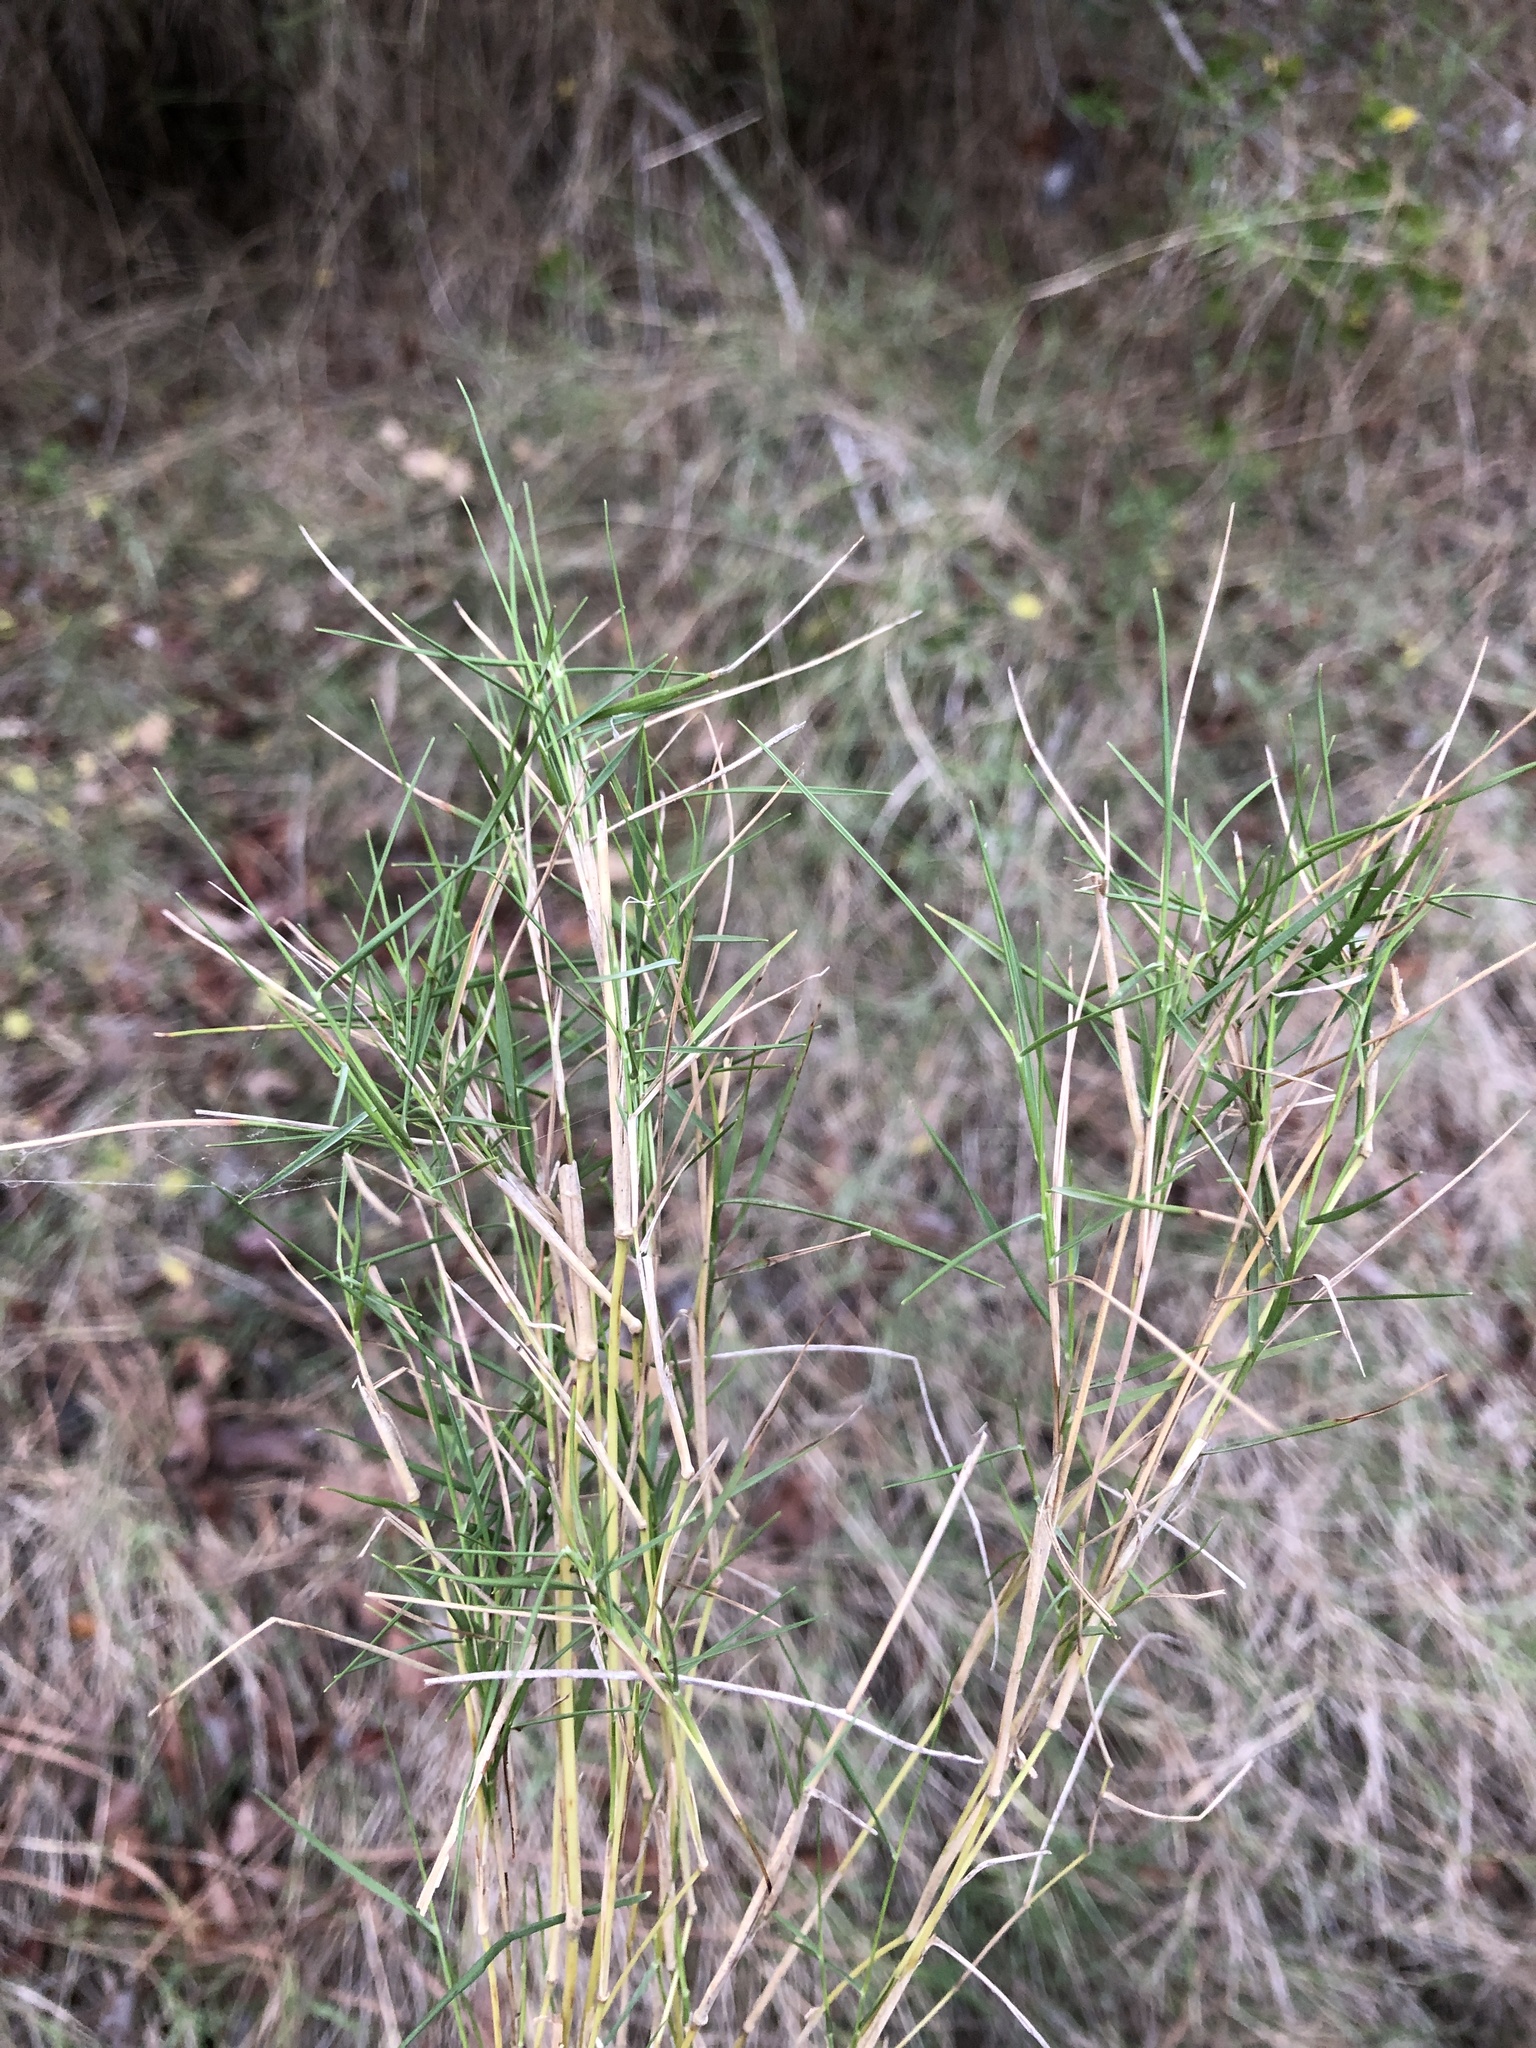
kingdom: Plantae
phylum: Tracheophyta
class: Liliopsida
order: Poales
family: Poaceae
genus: Brachypodium
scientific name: Brachypodium retusum
